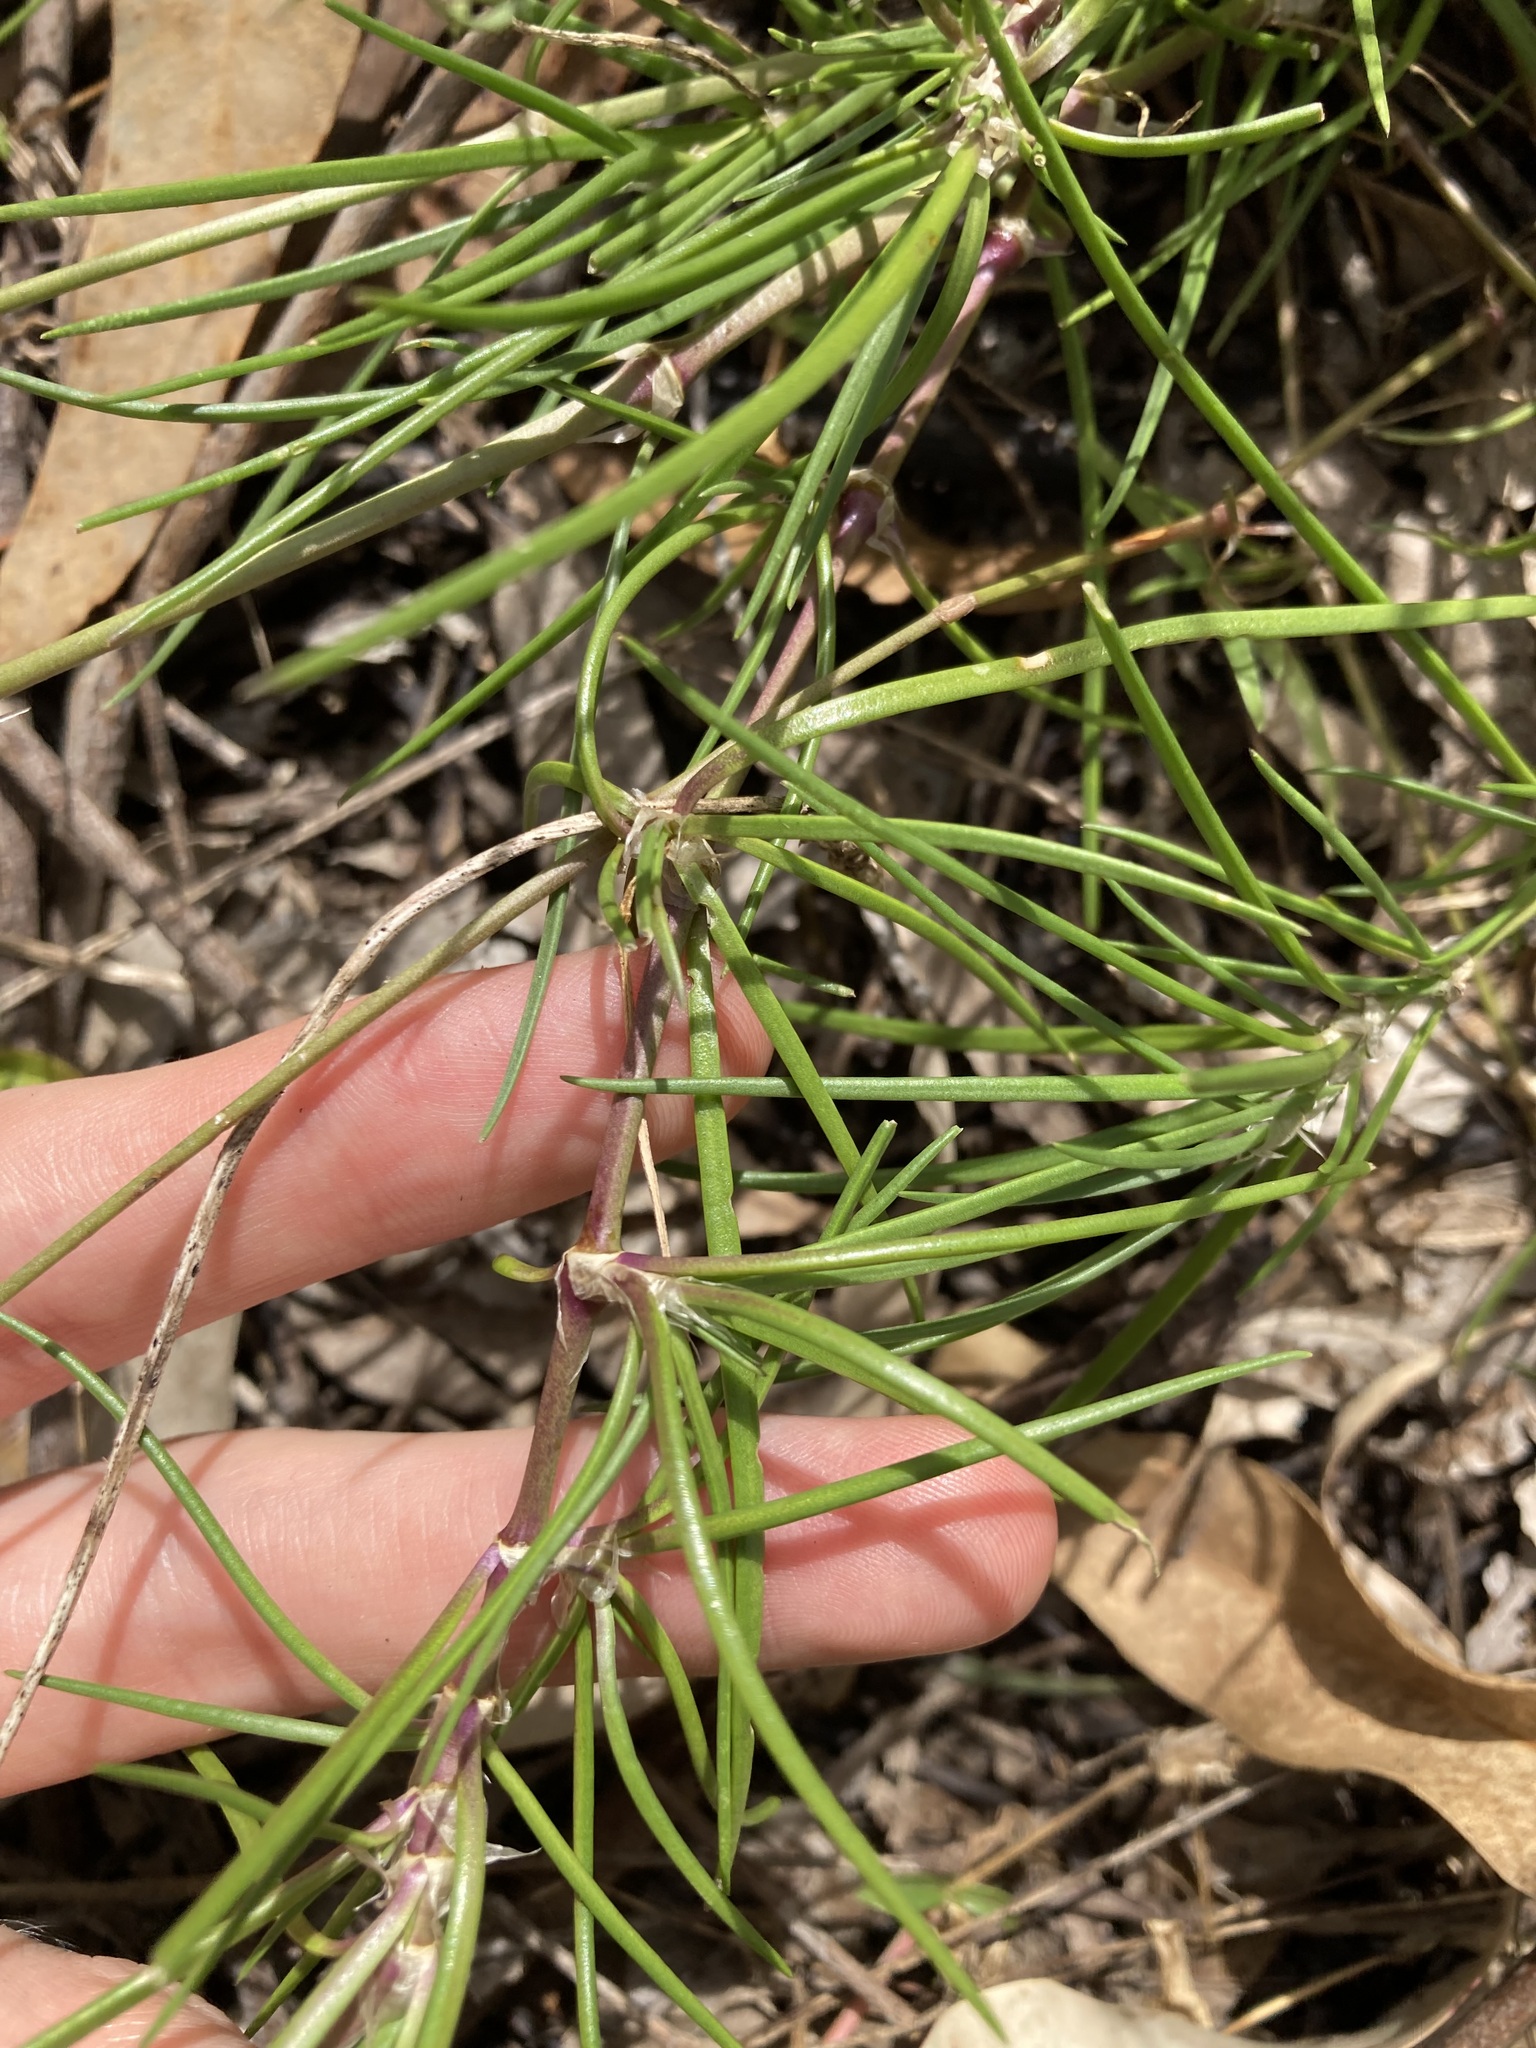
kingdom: Plantae
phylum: Tracheophyta
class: Magnoliopsida
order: Caryophyllales
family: Caryophyllaceae
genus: Spergula
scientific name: Spergula levis
